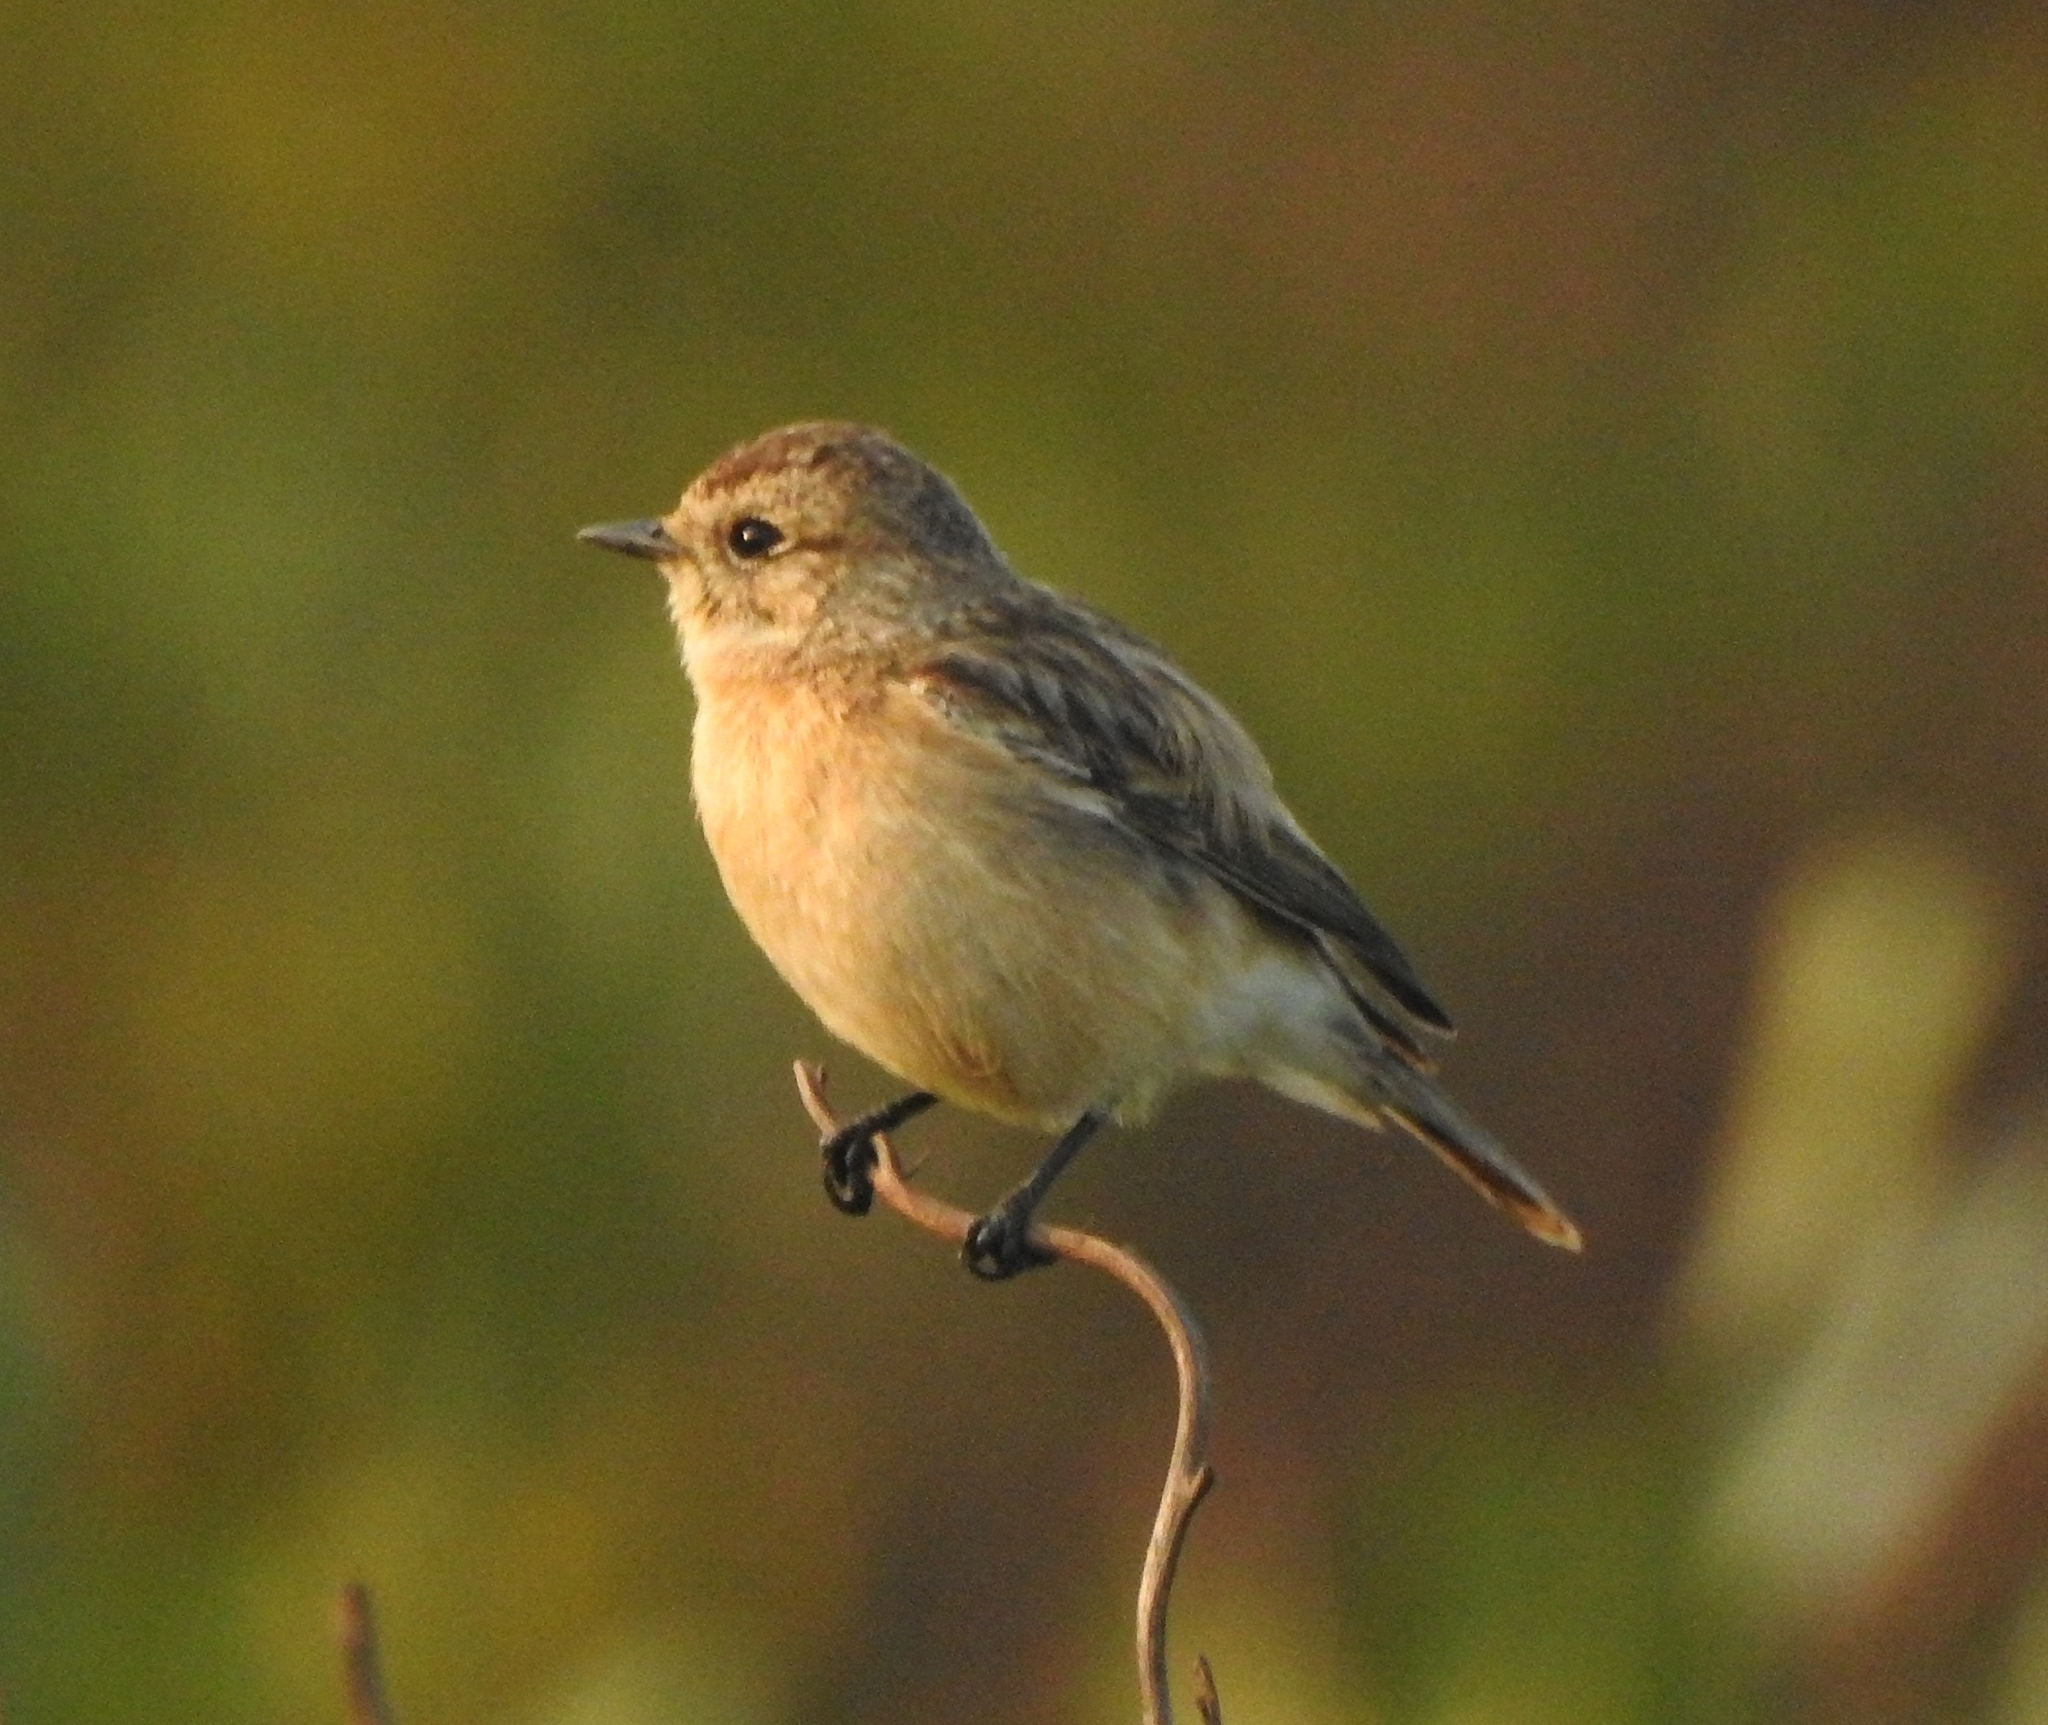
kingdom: Animalia
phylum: Chordata
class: Aves
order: Passeriformes
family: Muscicapidae
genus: Saxicola
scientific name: Saxicola maurus
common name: Siberian stonechat
